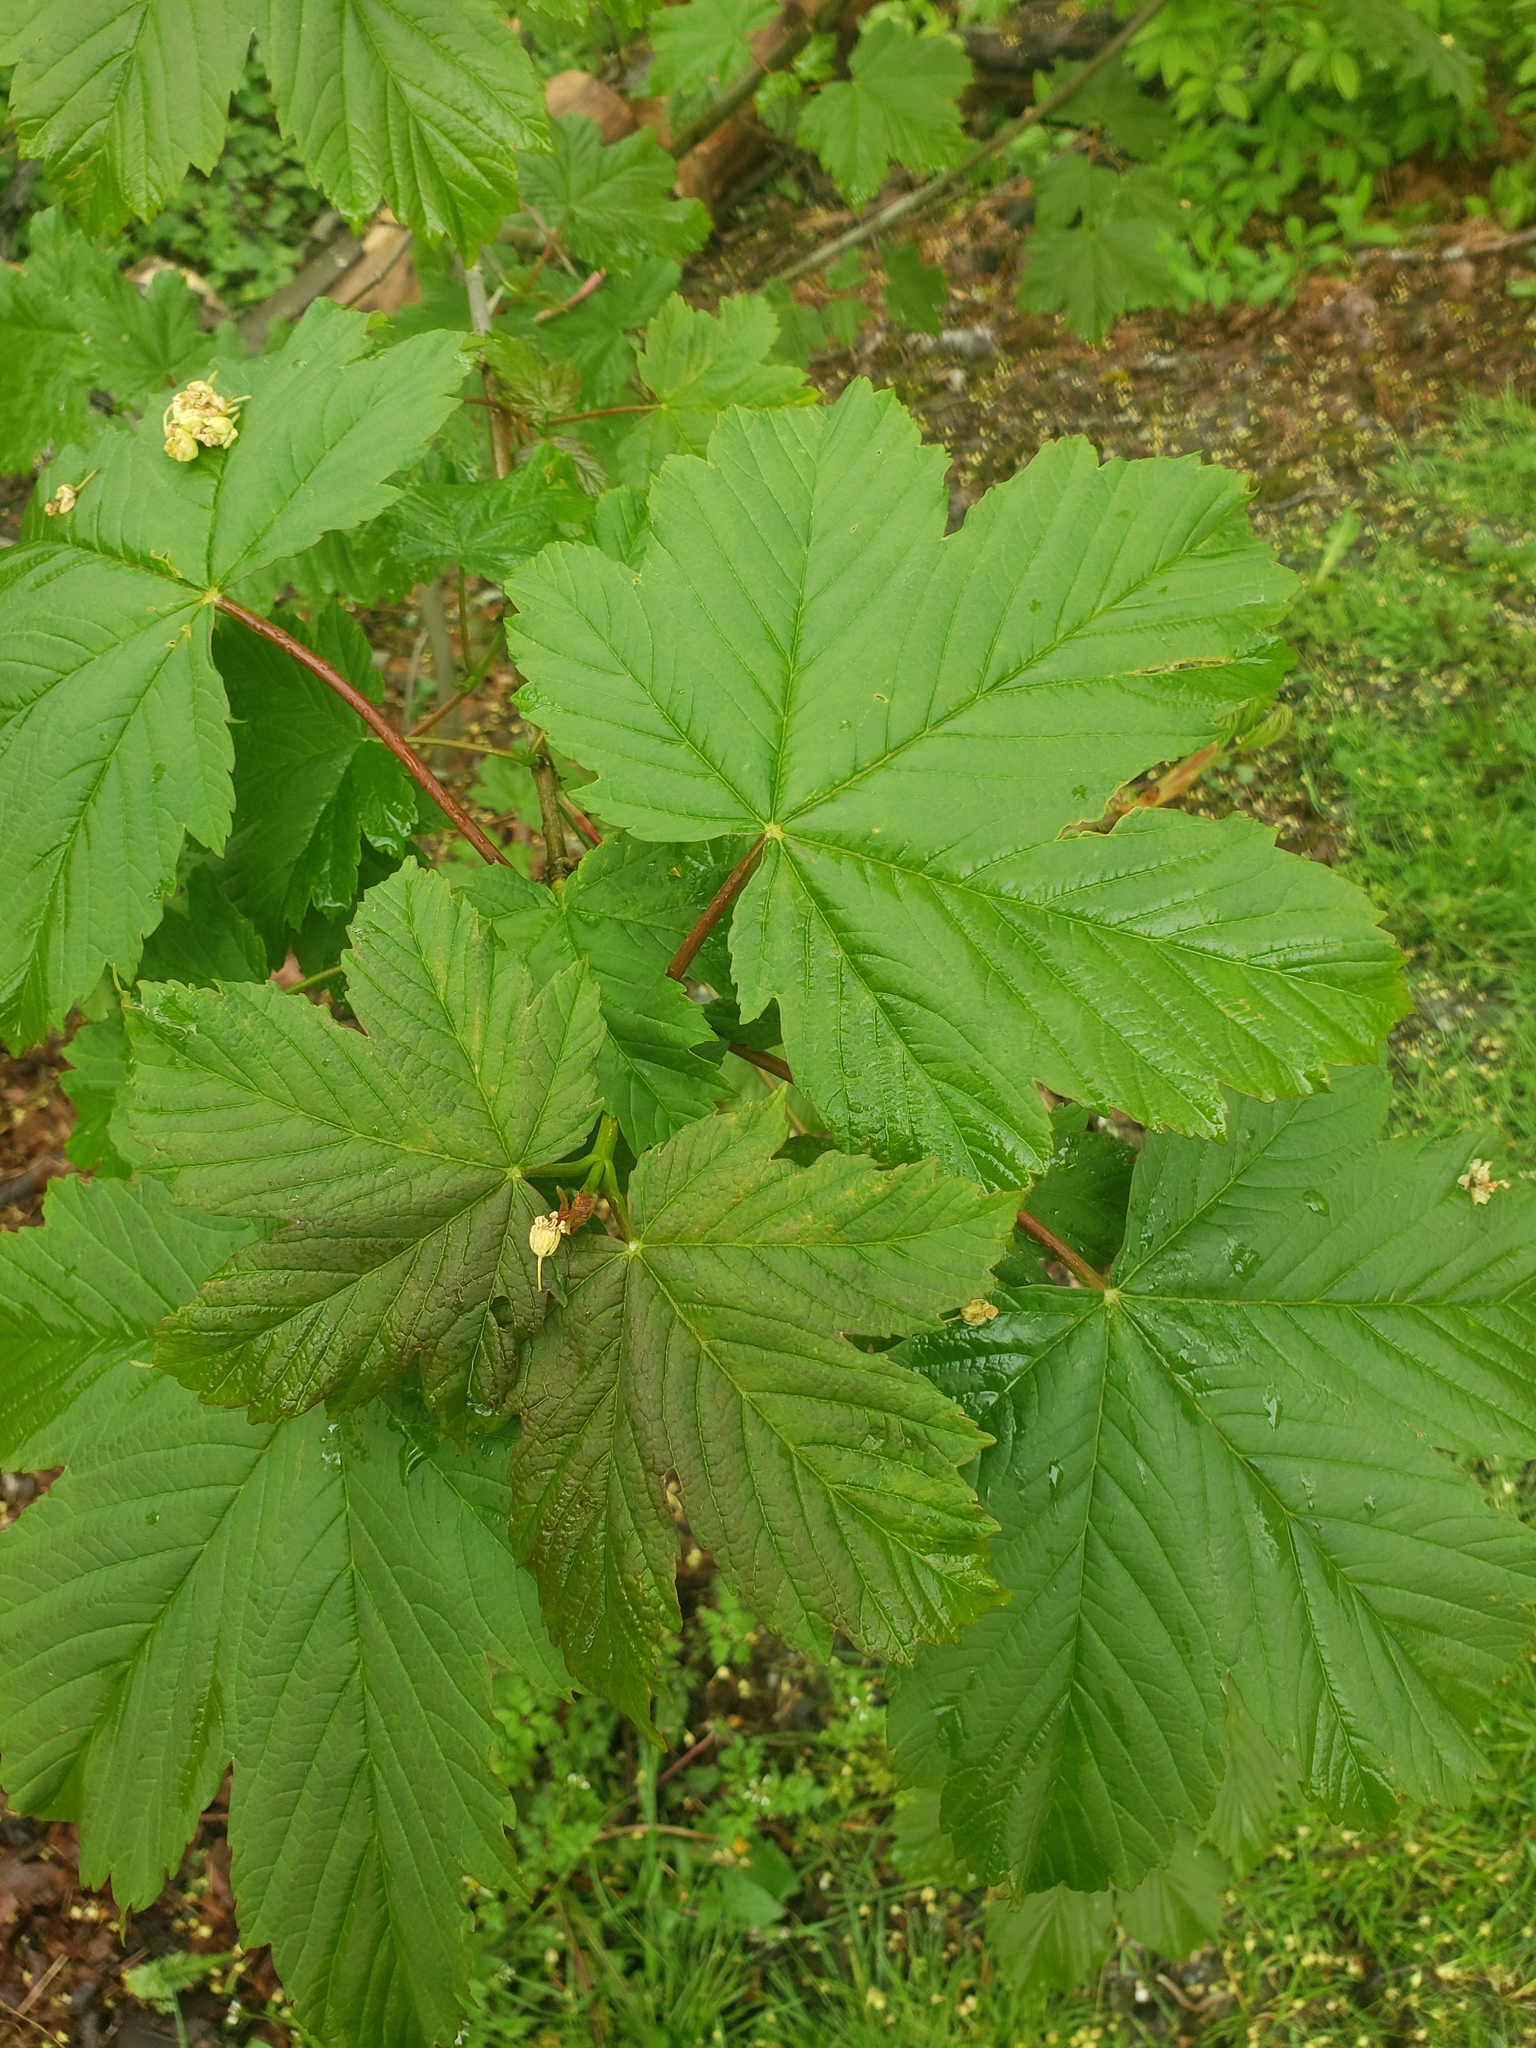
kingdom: Plantae
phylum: Tracheophyta
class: Magnoliopsida
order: Sapindales
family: Sapindaceae
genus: Acer
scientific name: Acer pseudoplatanus
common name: Sycamore
